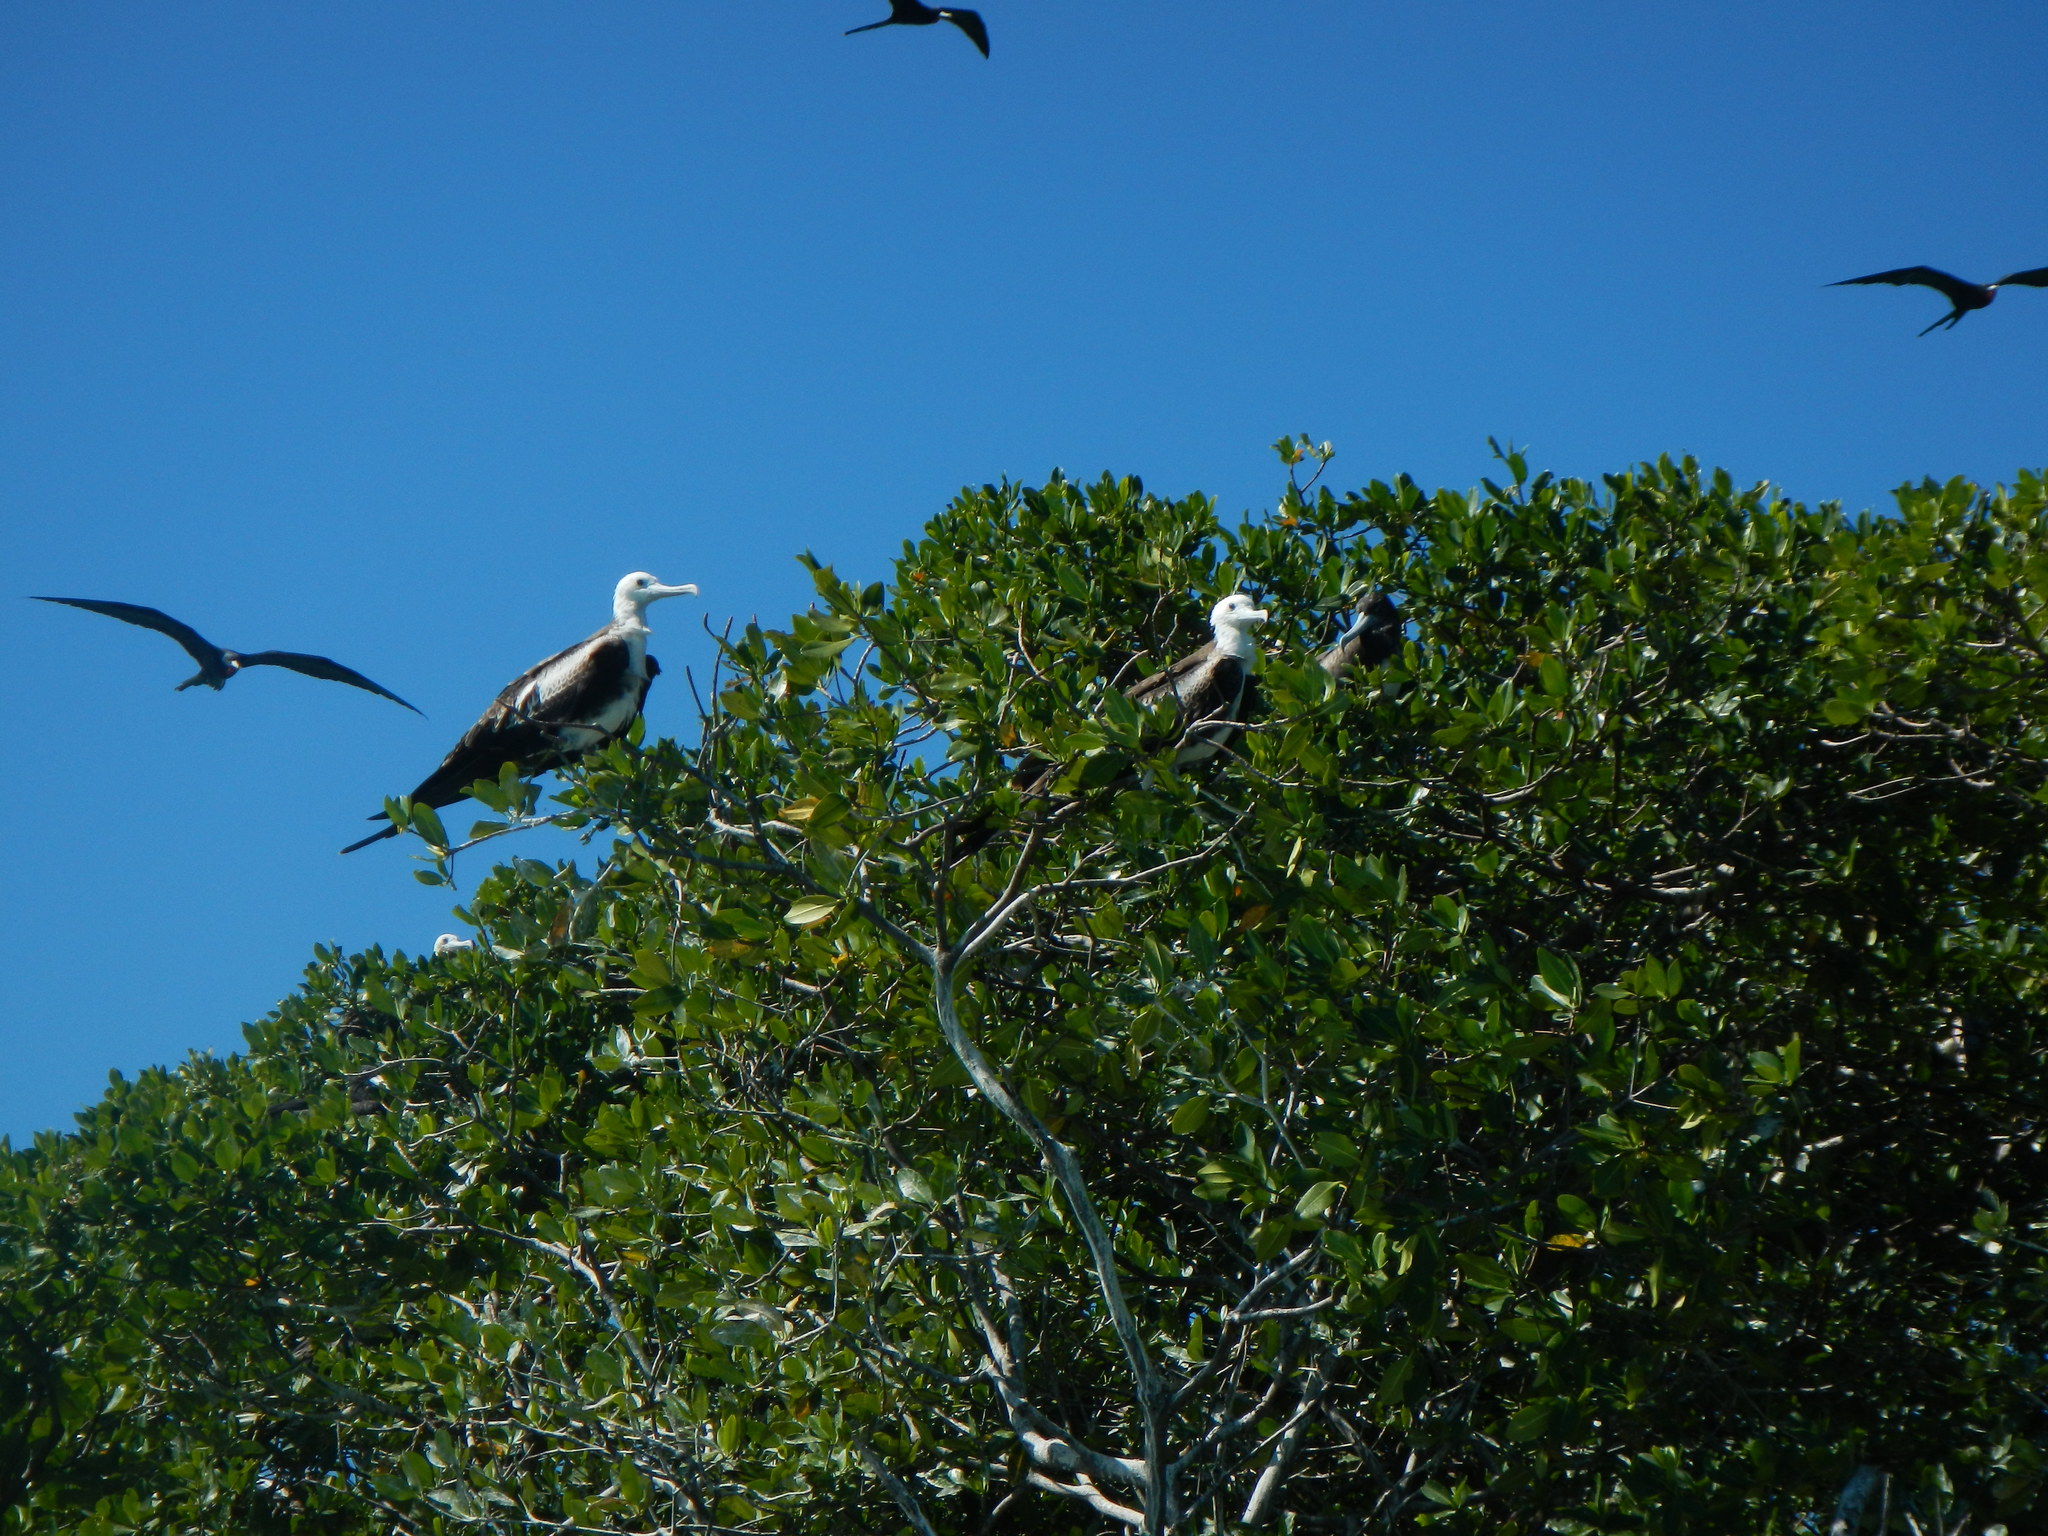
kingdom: Animalia
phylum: Chordata
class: Aves
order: Suliformes
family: Fregatidae
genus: Fregata
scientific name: Fregata magnificens
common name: Magnificent frigatebird
